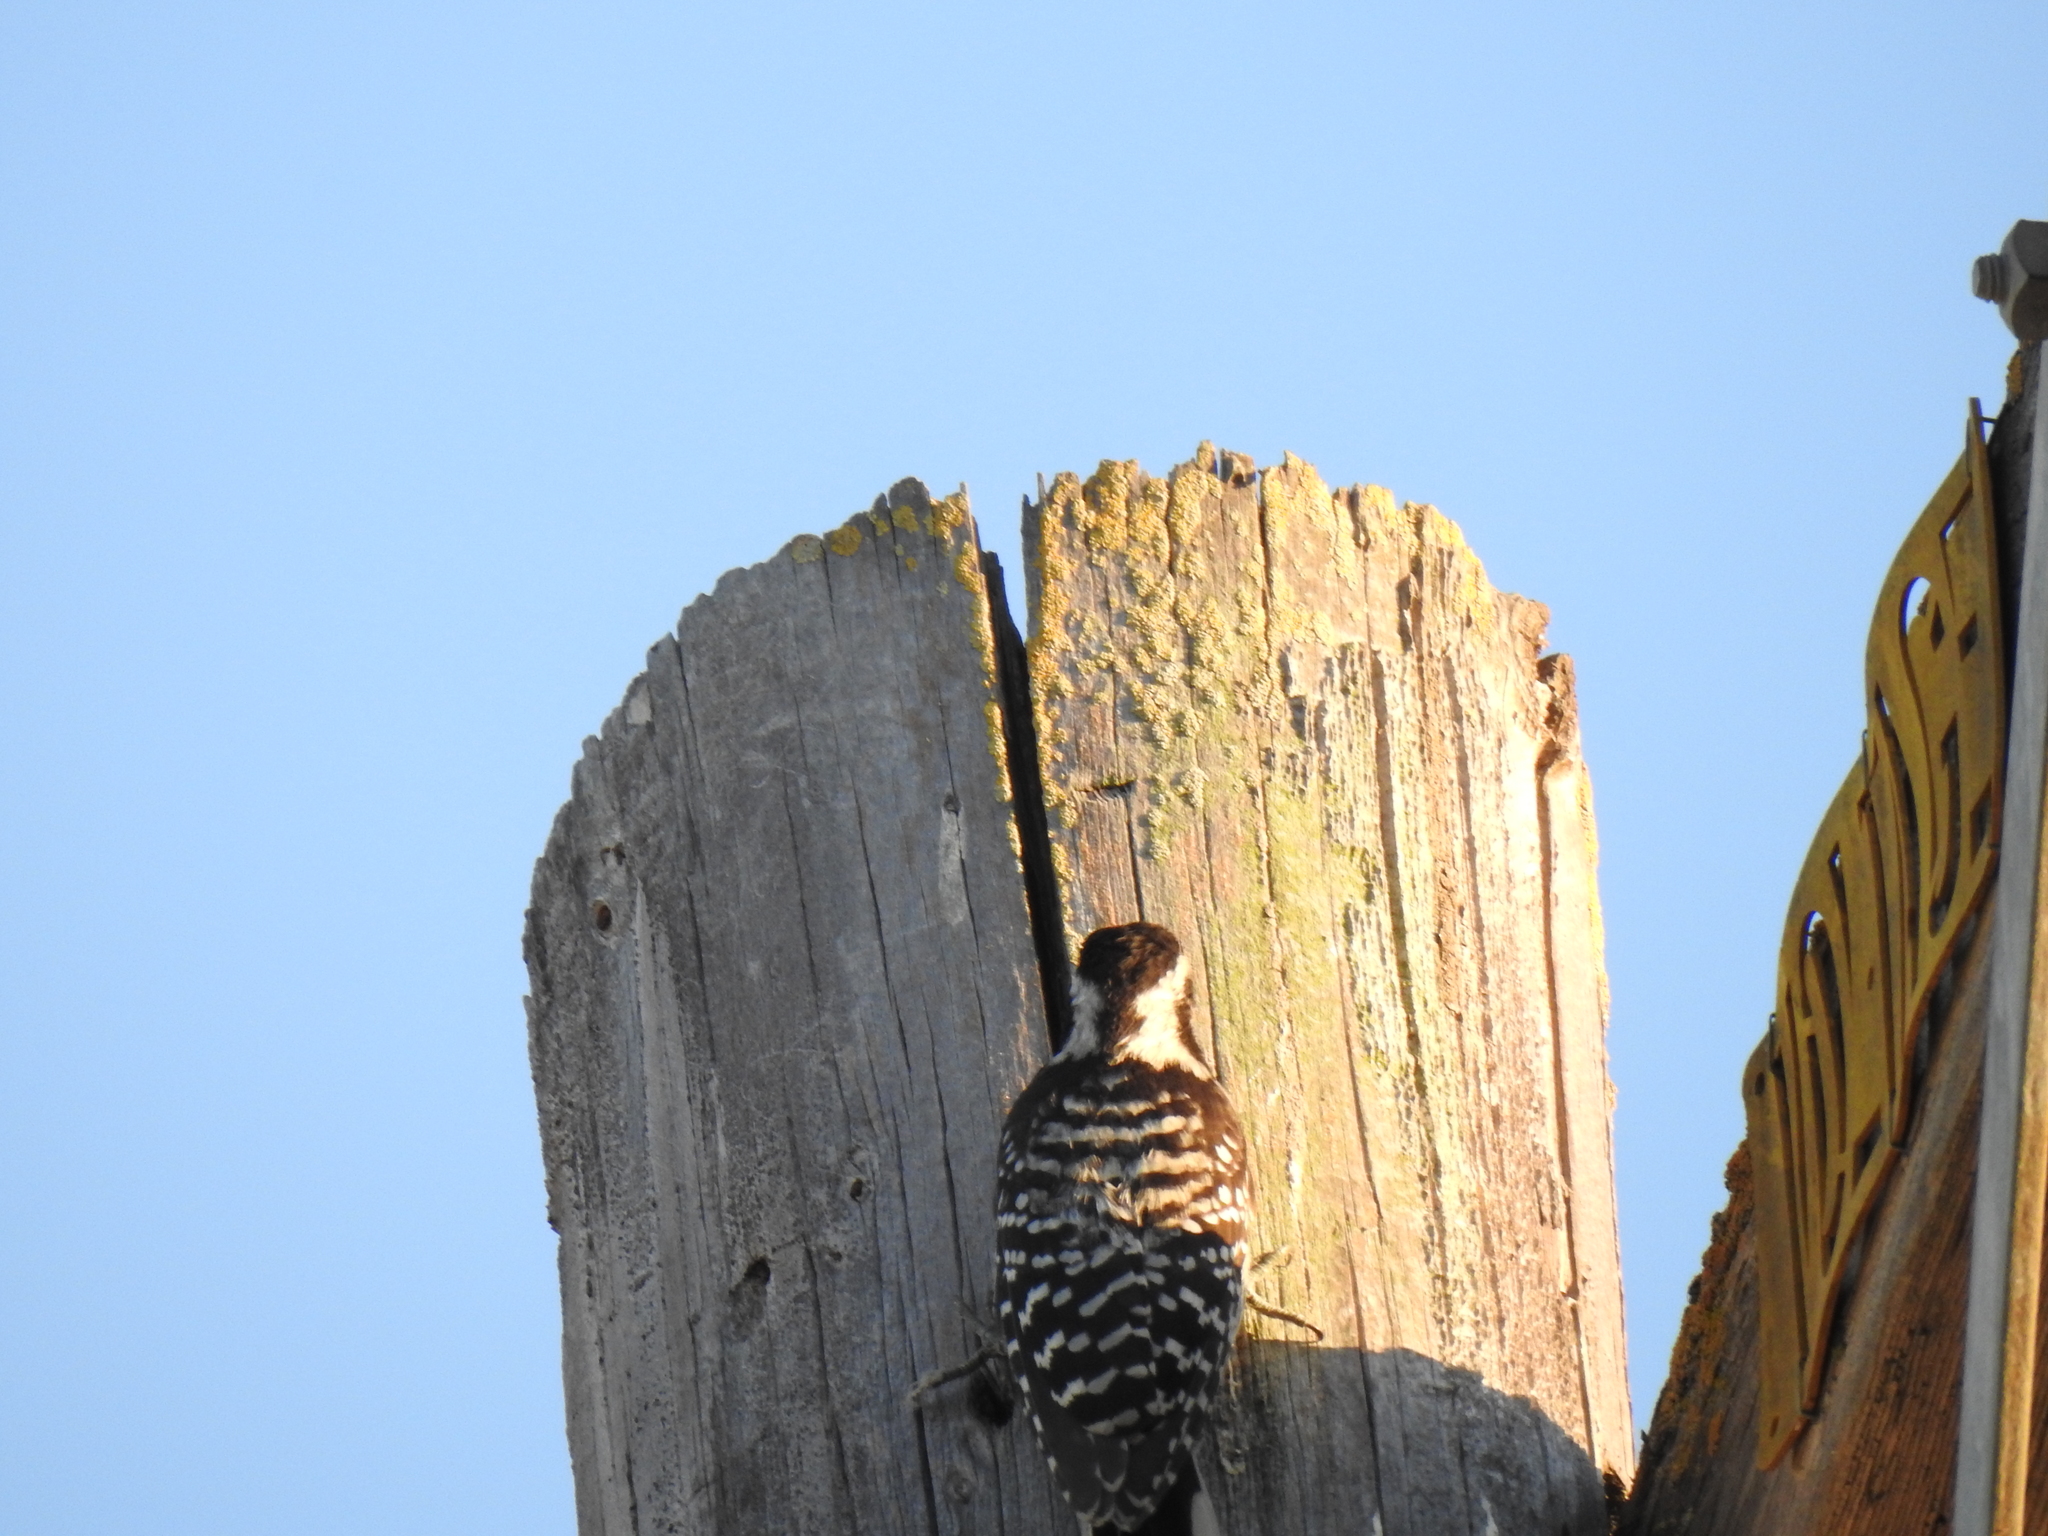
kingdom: Animalia
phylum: Chordata
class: Aves
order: Passeriformes
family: Mimidae
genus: Mimus
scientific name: Mimus polyglottos
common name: Northern mockingbird
